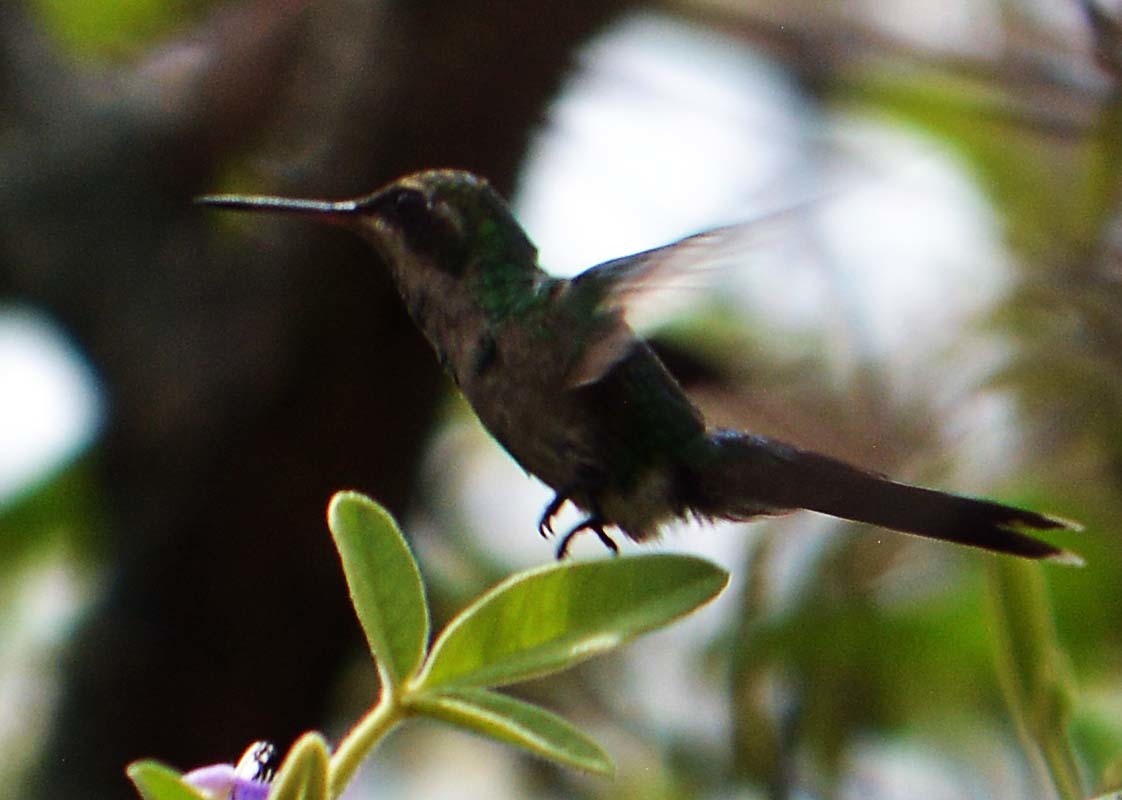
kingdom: Animalia
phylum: Chordata
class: Aves
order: Apodiformes
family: Trochilidae
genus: Cynanthus
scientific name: Cynanthus auriceps
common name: Golden-crowned emerald
